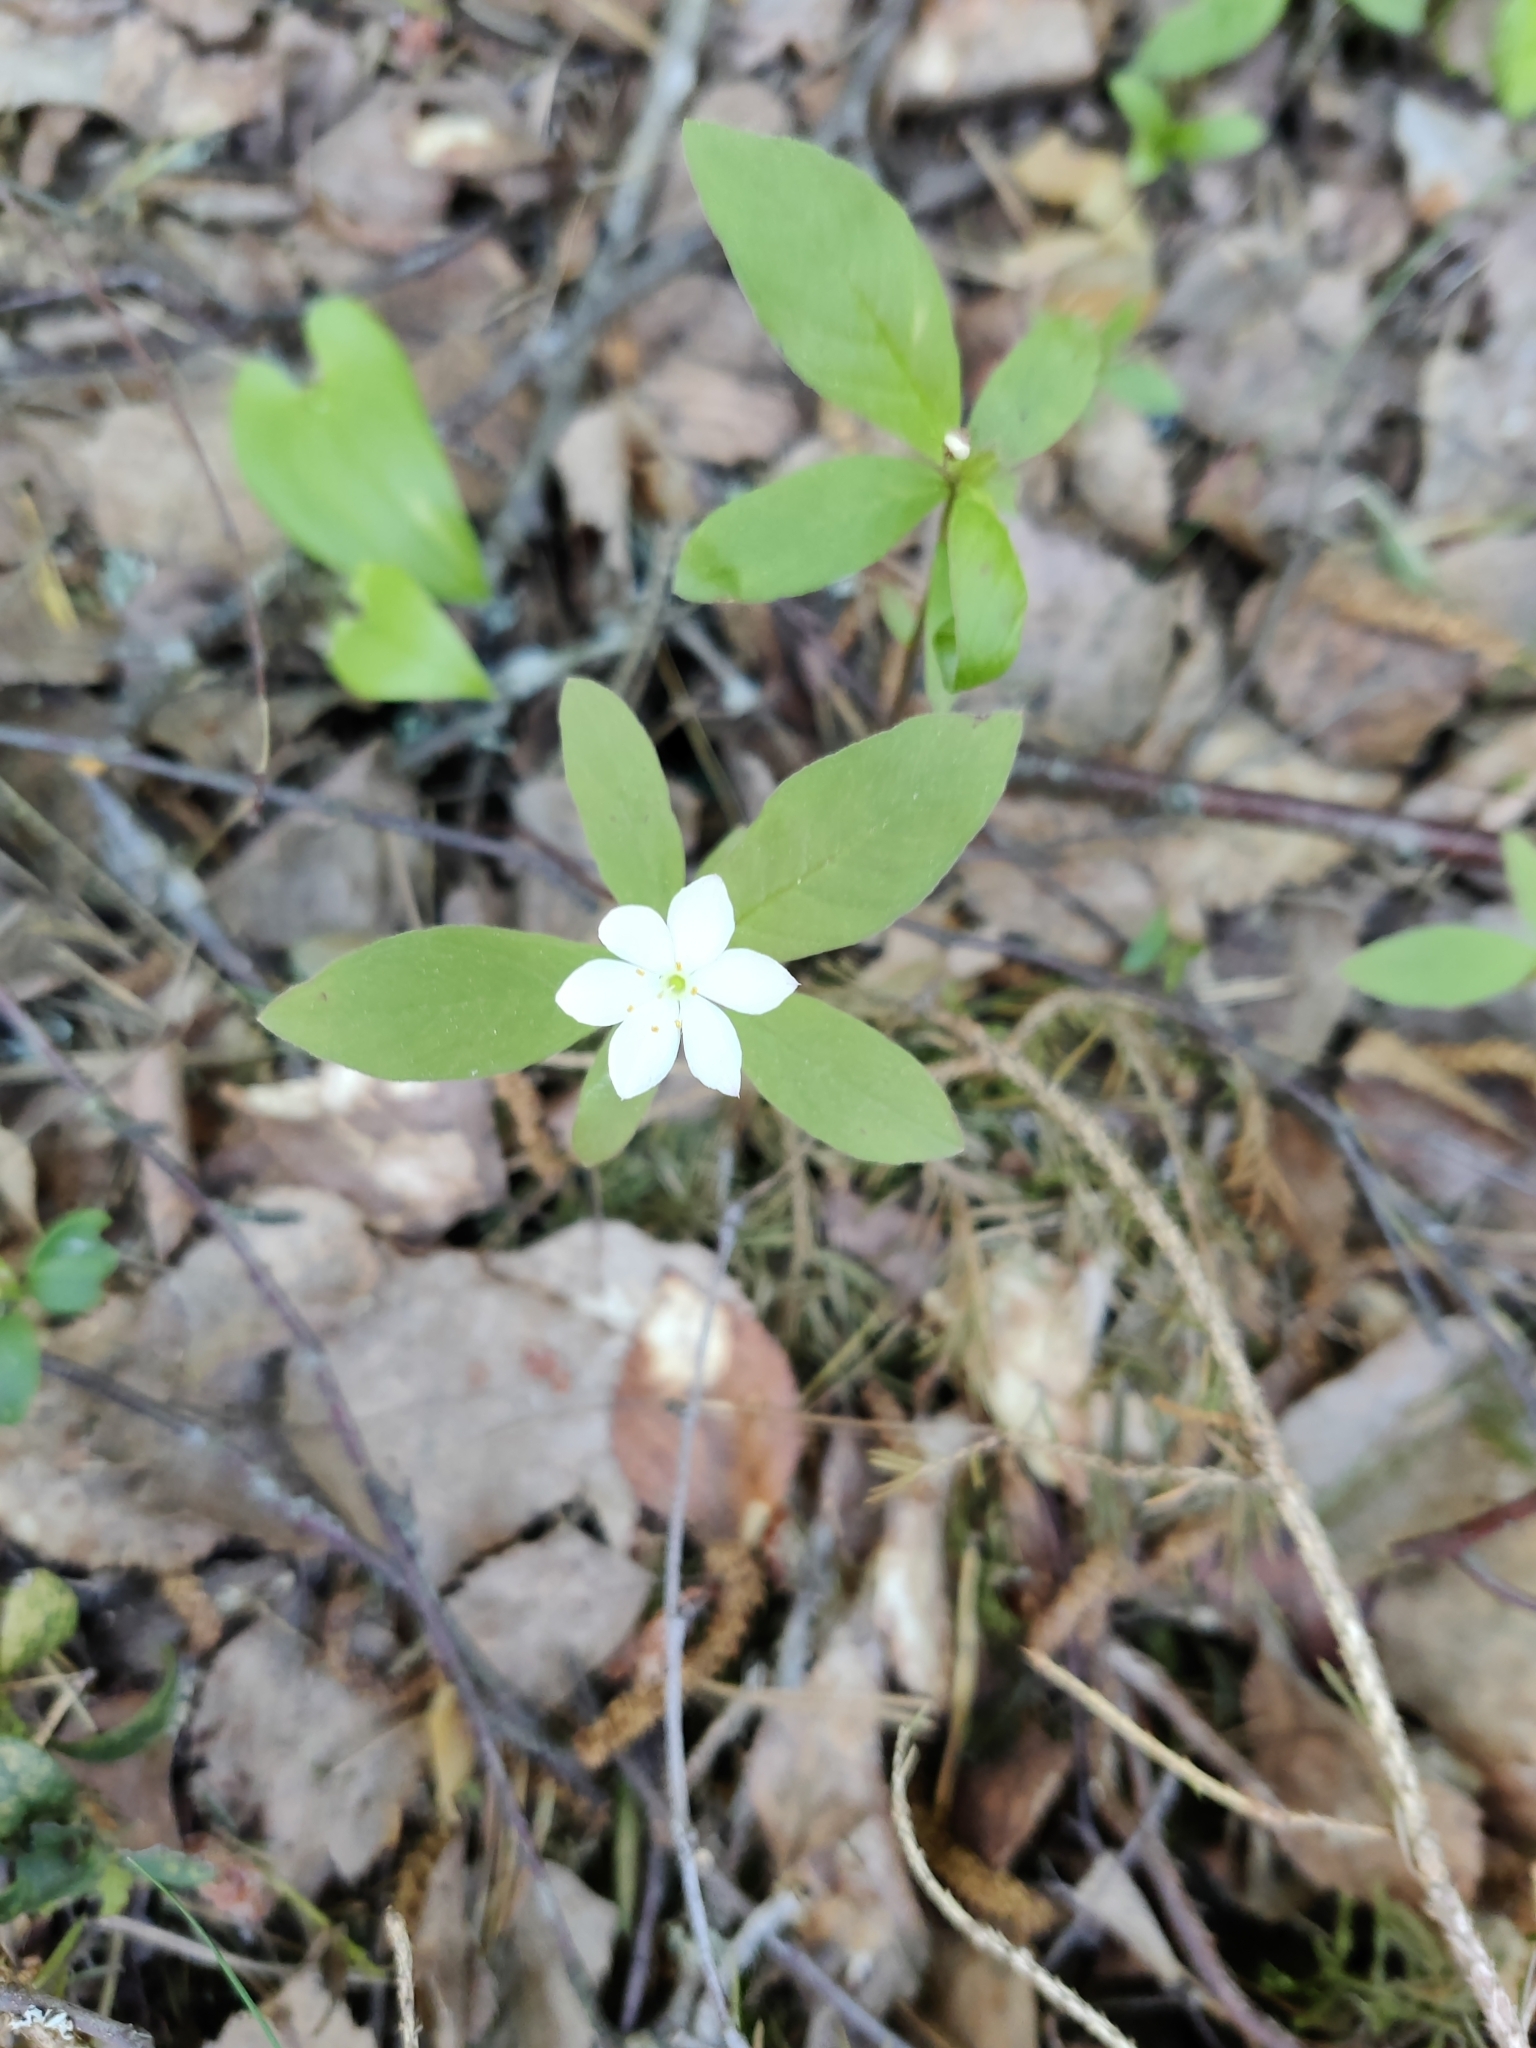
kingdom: Plantae
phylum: Tracheophyta
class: Magnoliopsida
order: Ericales
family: Primulaceae
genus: Lysimachia
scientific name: Lysimachia europaea
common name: Arctic starflower
